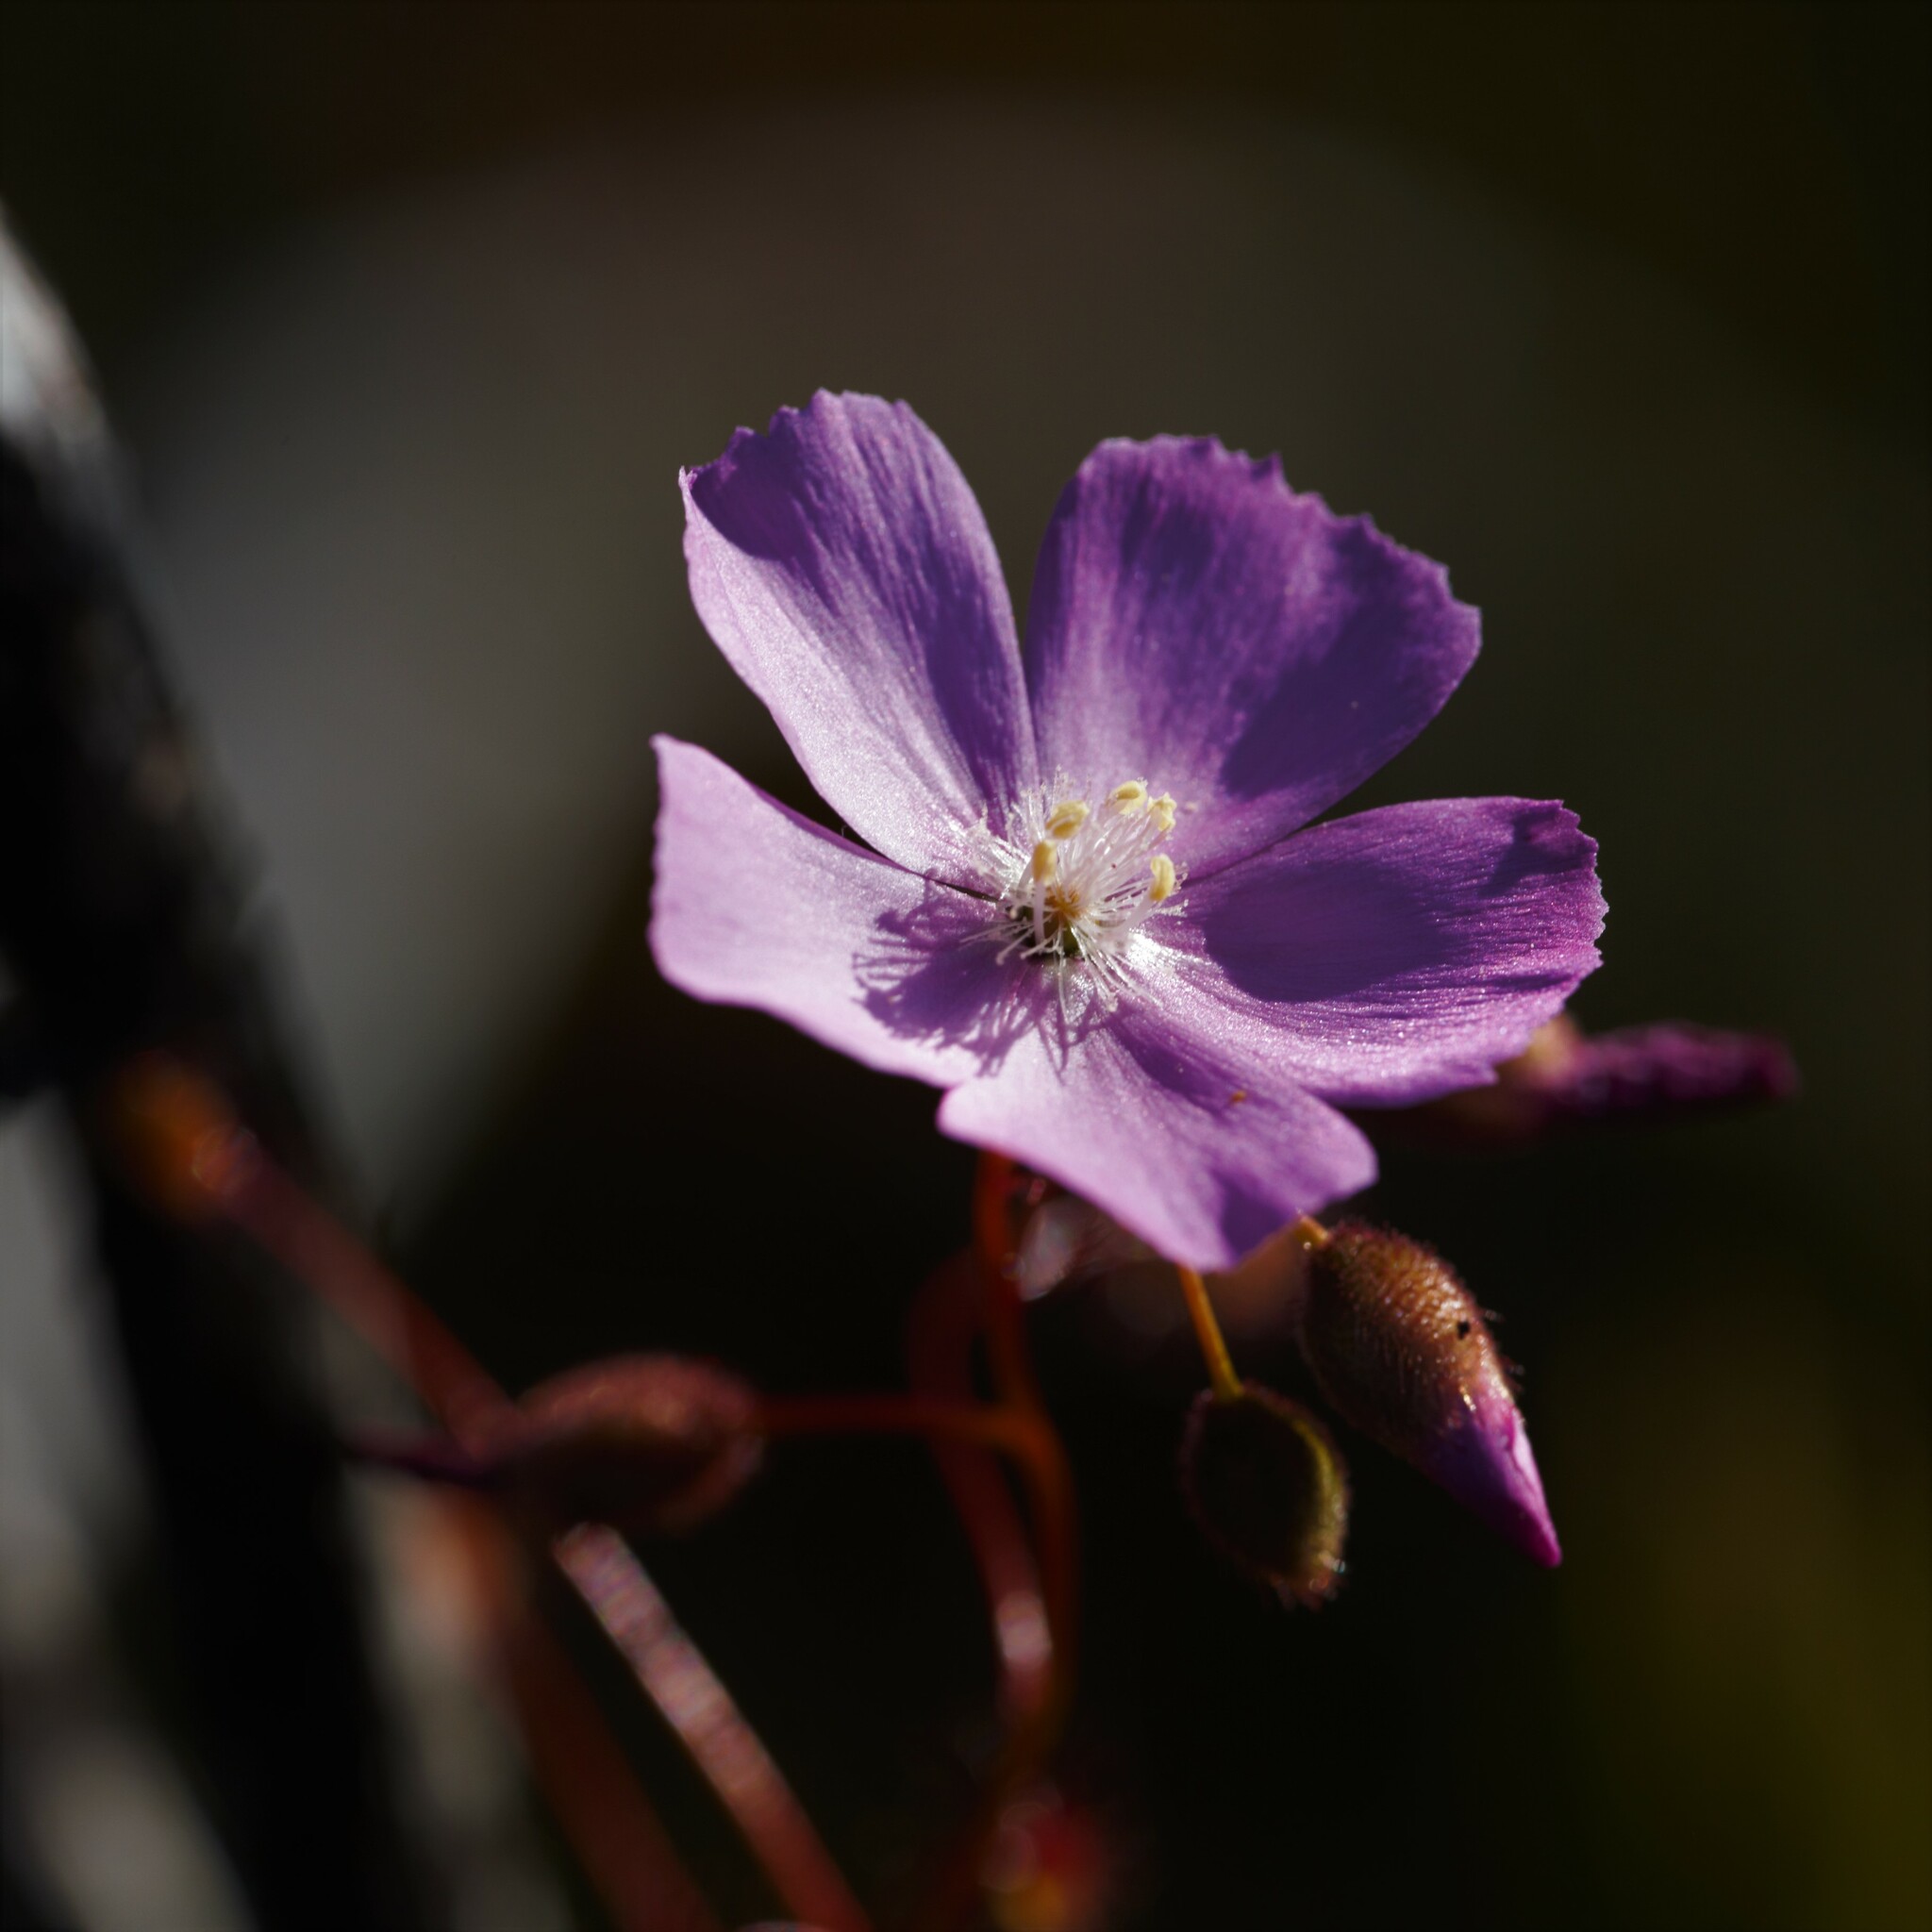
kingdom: Plantae
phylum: Tracheophyta
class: Magnoliopsida
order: Caryophyllales
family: Droseraceae
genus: Drosera
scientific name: Drosera
